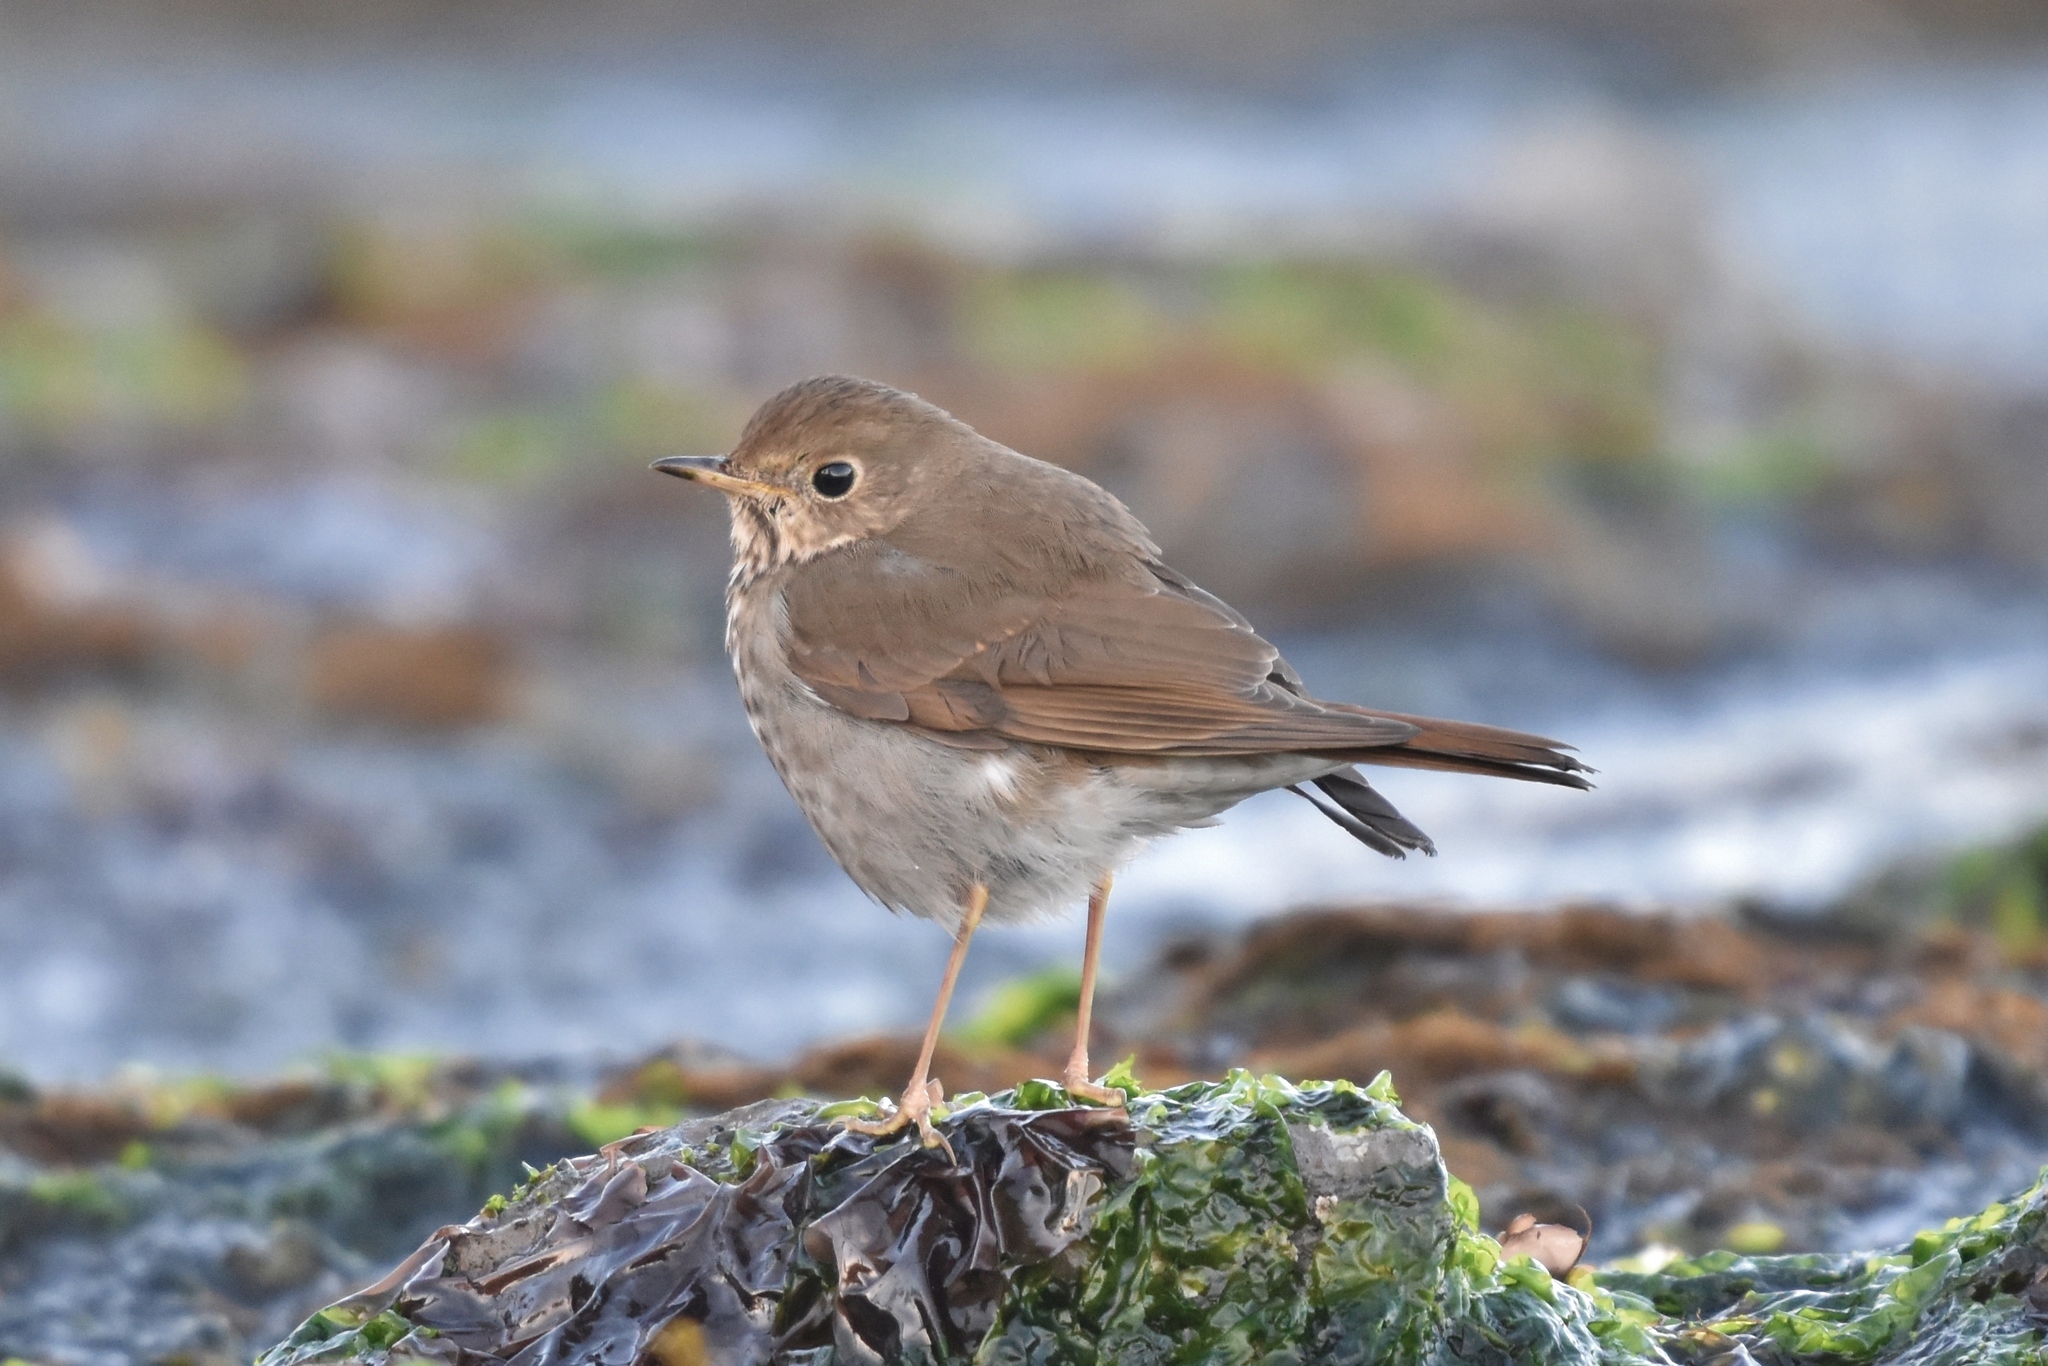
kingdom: Animalia
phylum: Chordata
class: Aves
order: Passeriformes
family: Turdidae
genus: Catharus
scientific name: Catharus guttatus
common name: Hermit thrush
